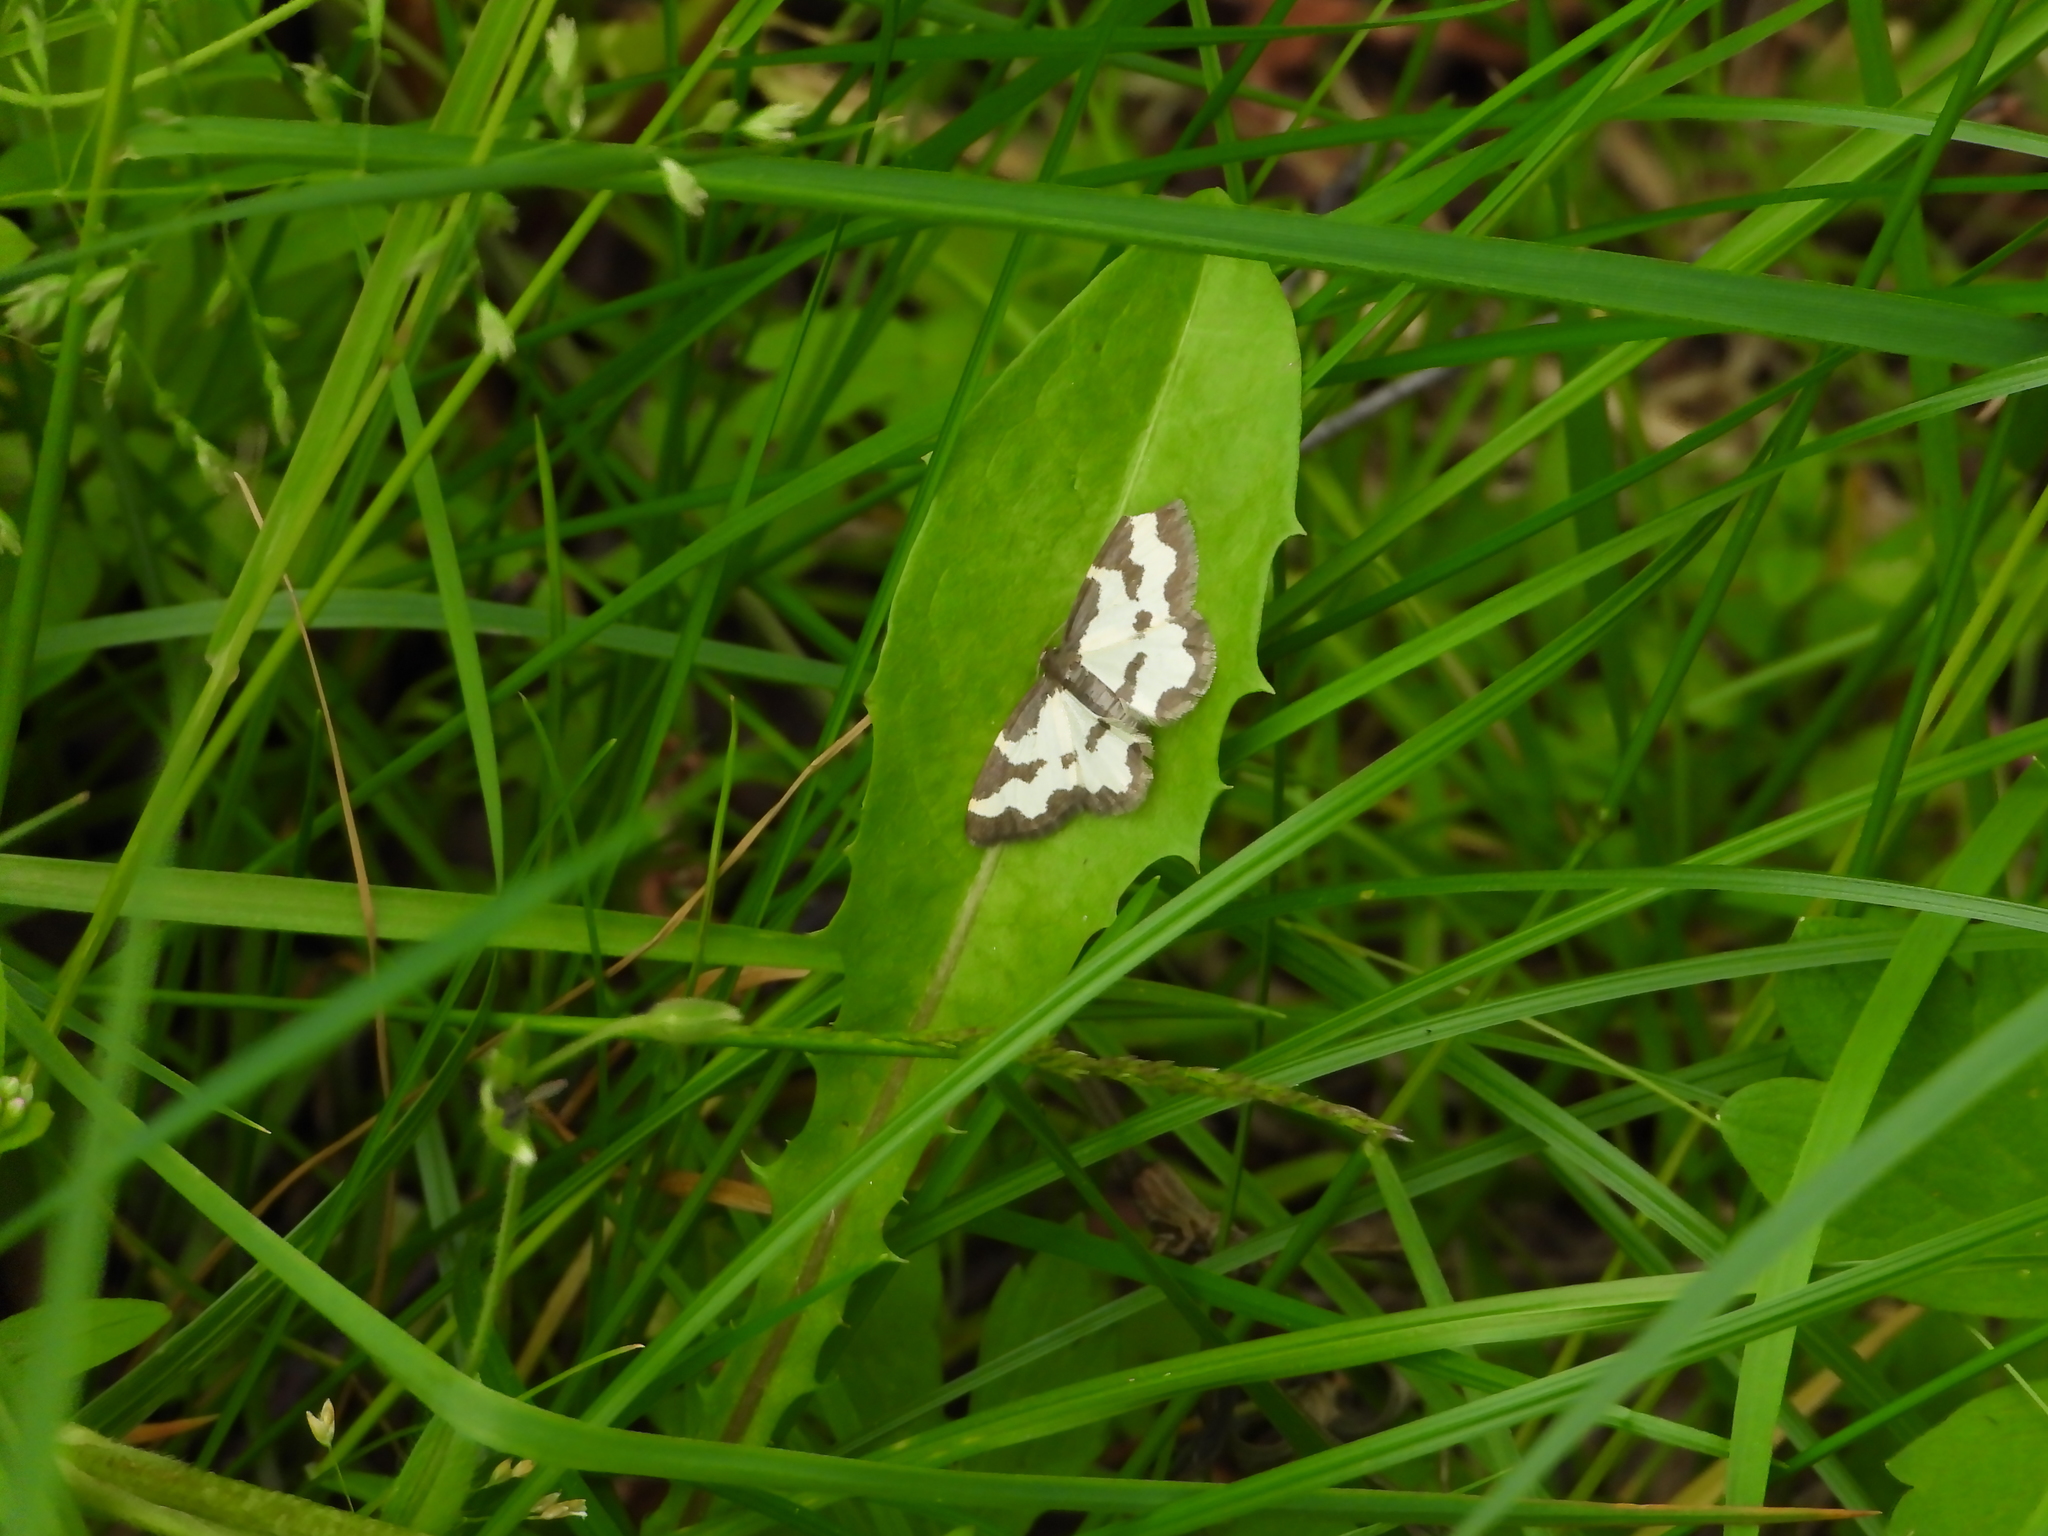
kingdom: Animalia
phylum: Arthropoda
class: Insecta
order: Lepidoptera
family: Geometridae
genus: Lomaspilis
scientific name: Lomaspilis marginata
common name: Clouded border
